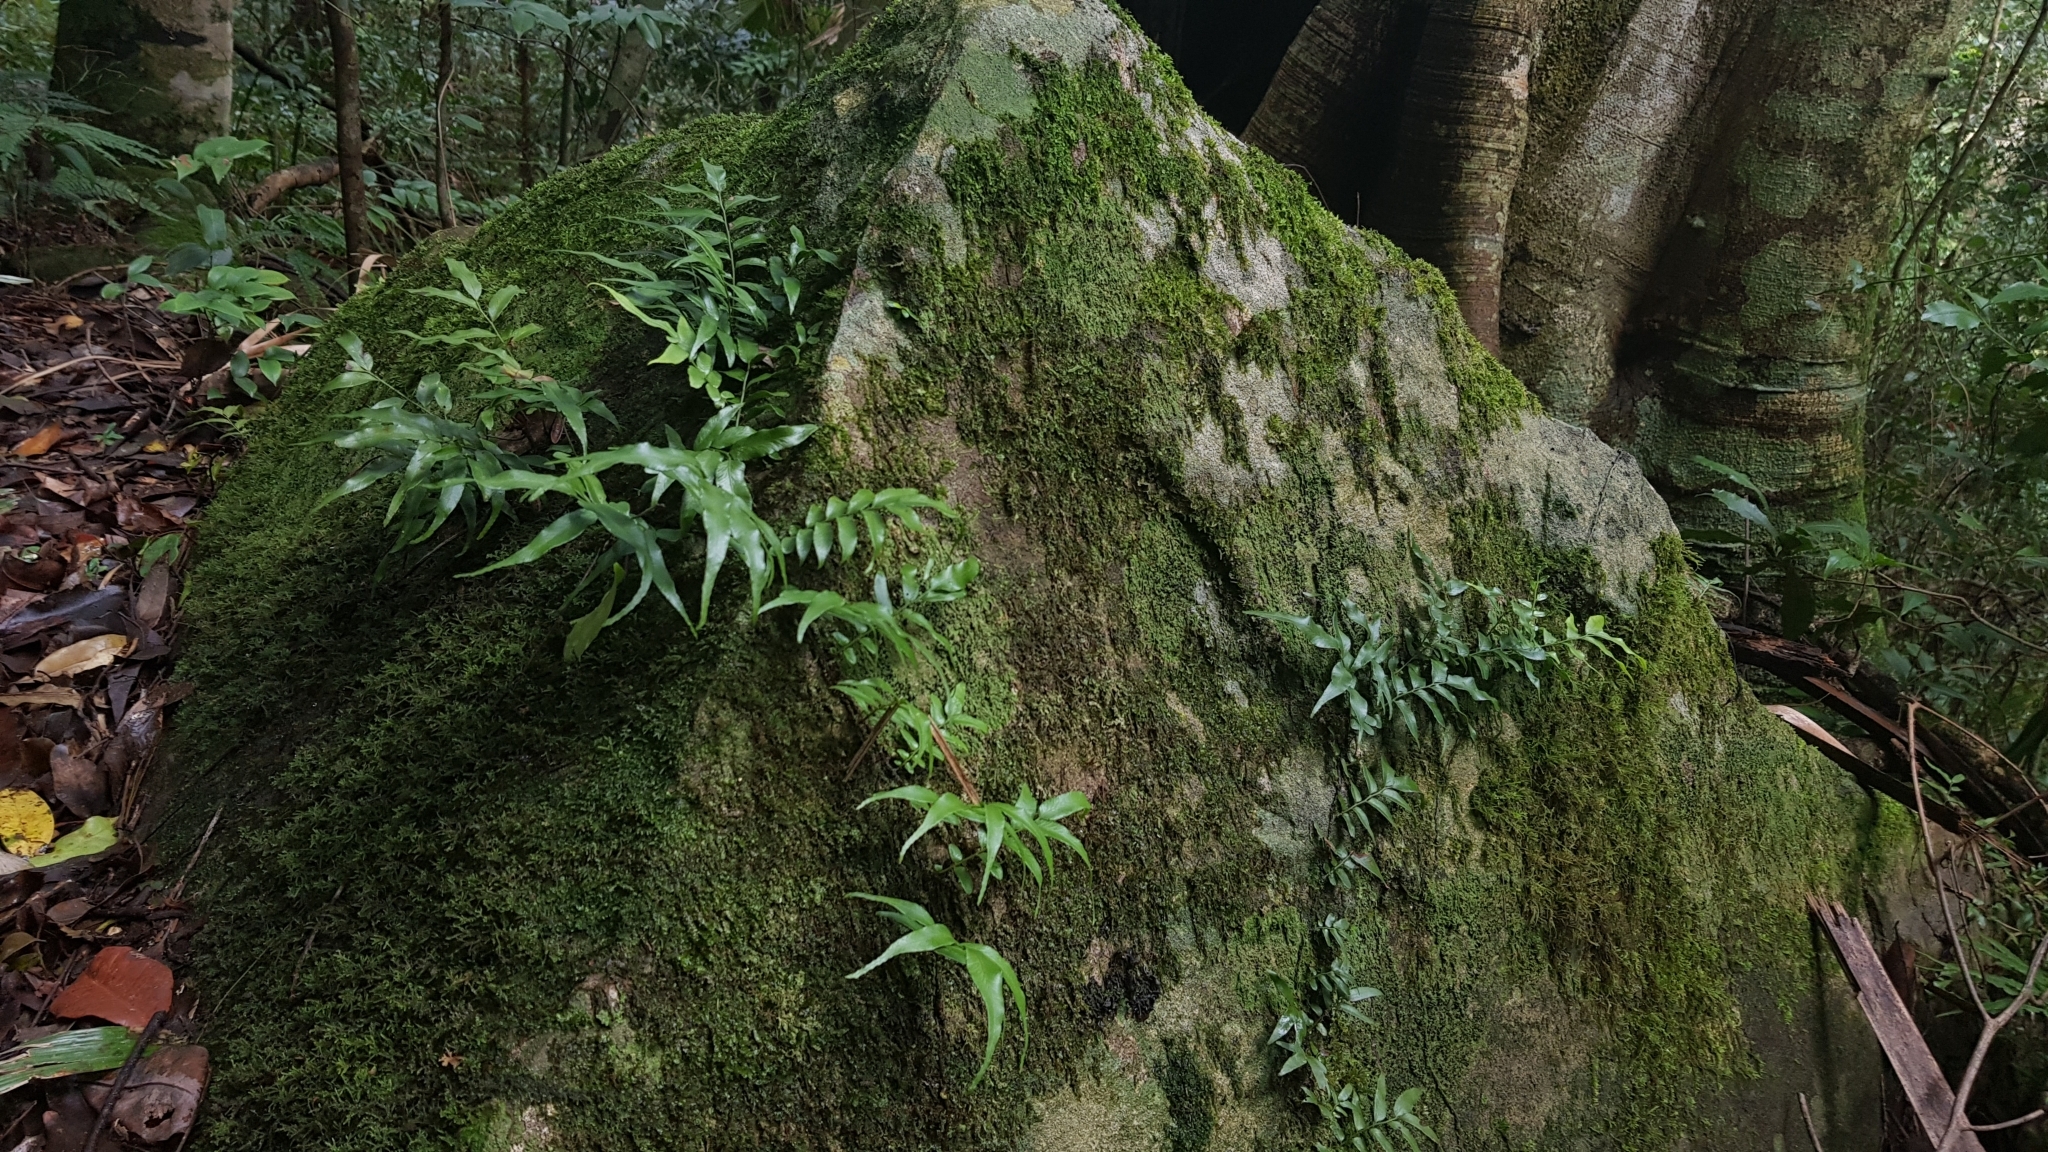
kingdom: Plantae
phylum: Tracheophyta
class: Polypodiopsida
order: Polypodiales
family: Tectariaceae
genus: Arthropteris
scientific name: Arthropteris tenella
